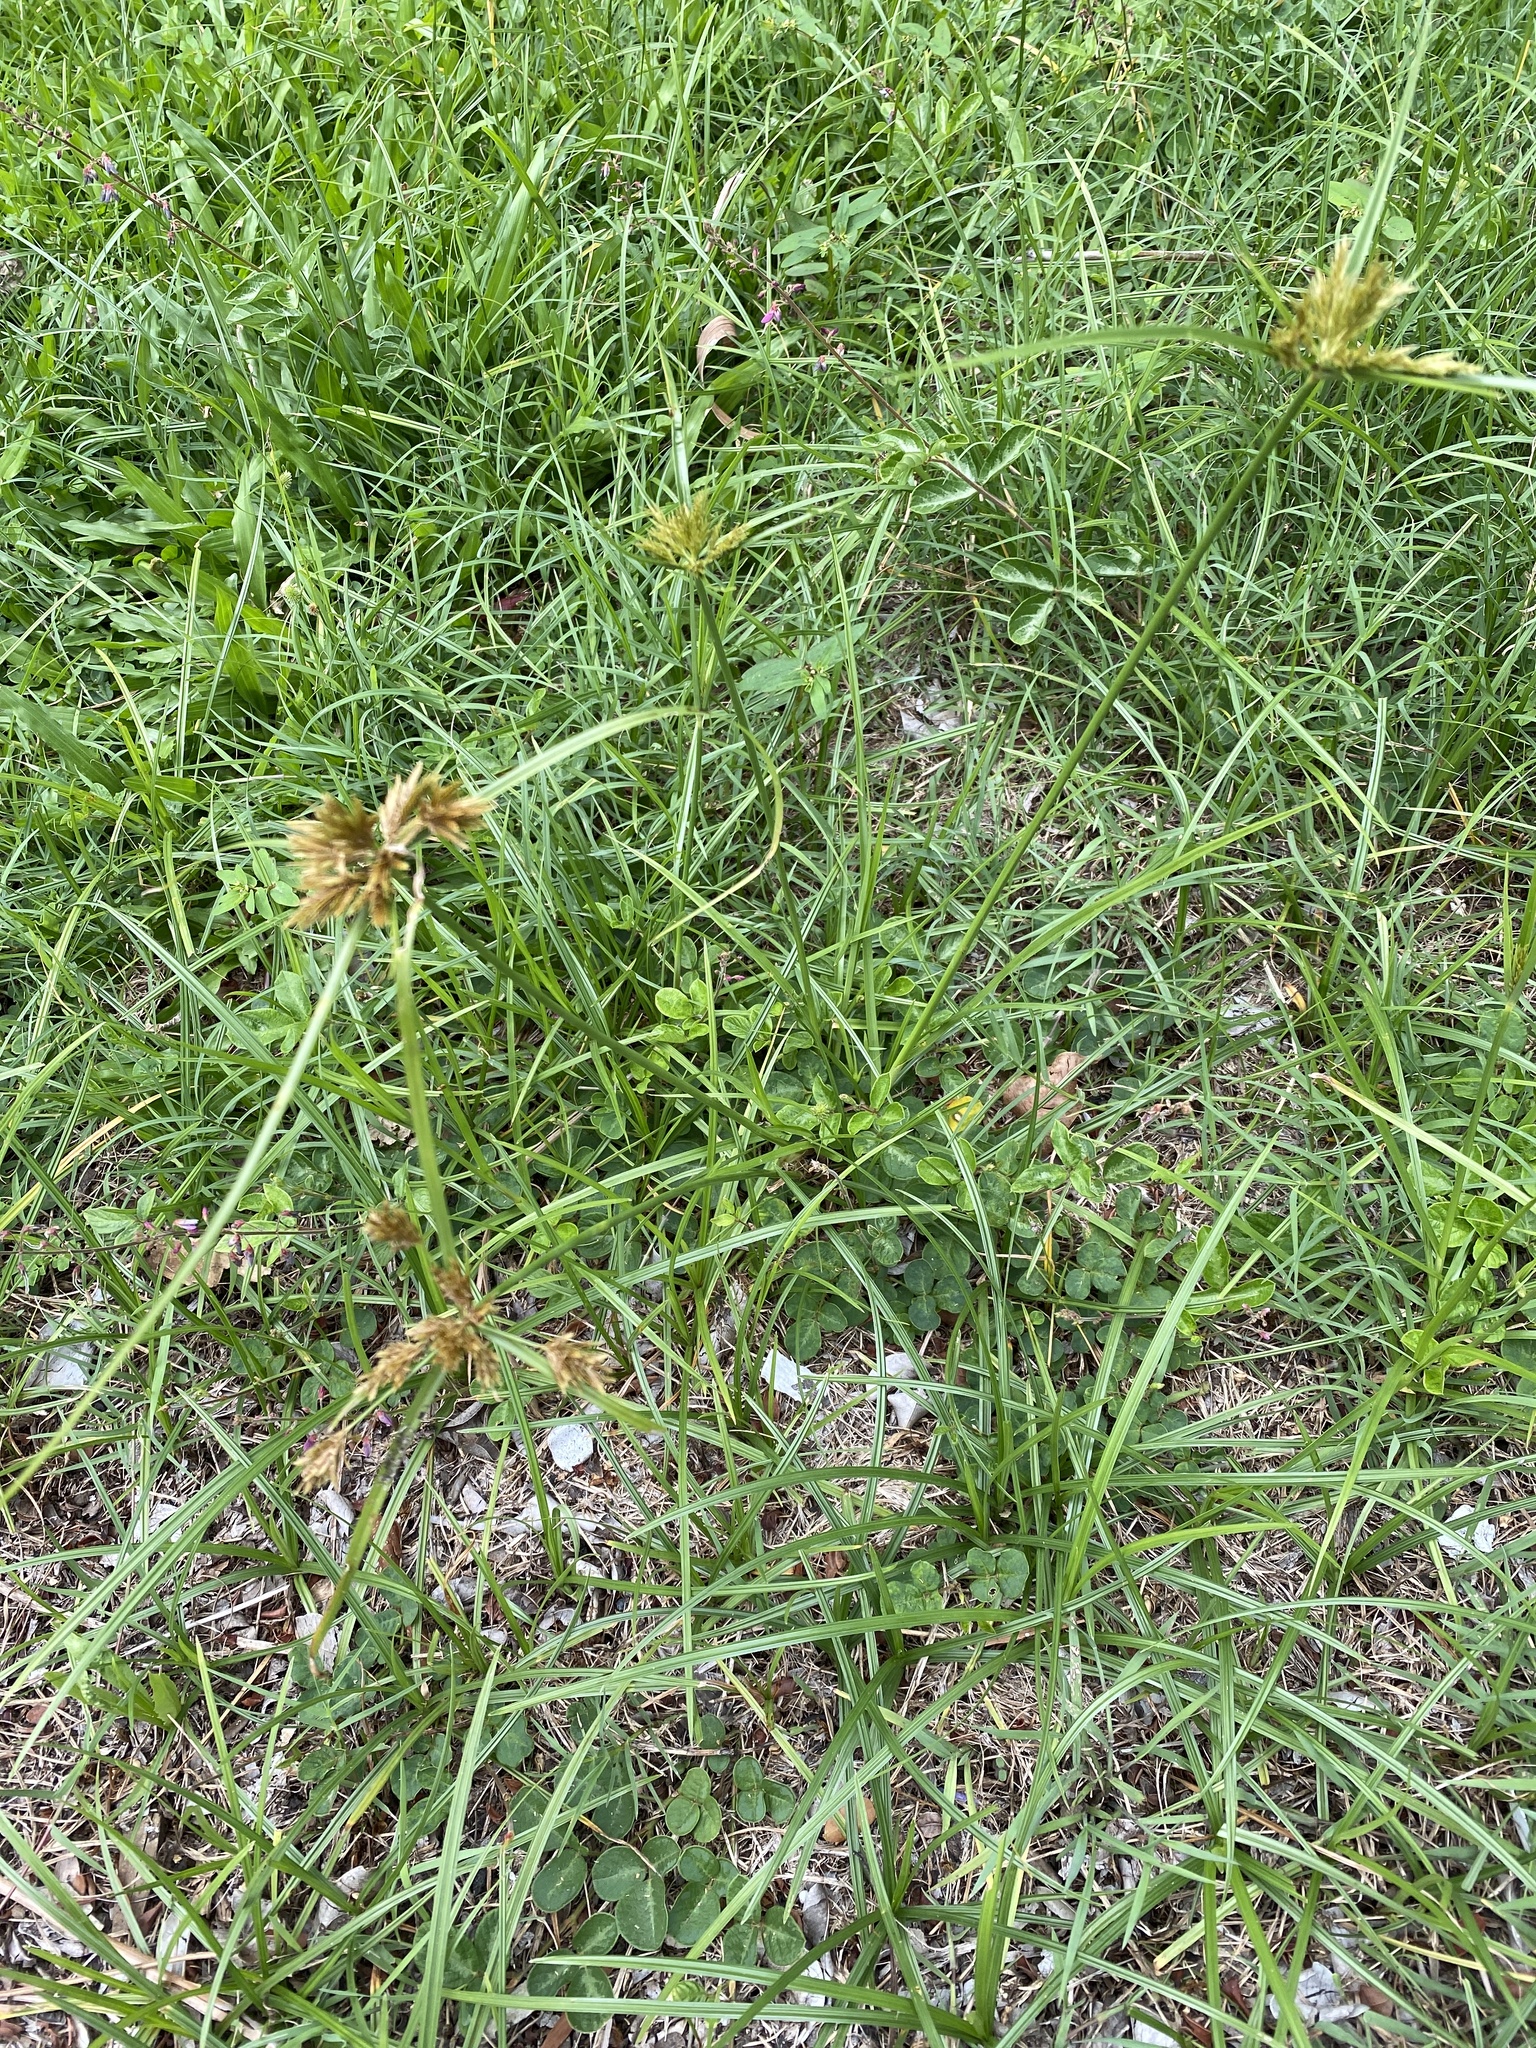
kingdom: Plantae
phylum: Tracheophyta
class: Liliopsida
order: Poales
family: Cyperaceae
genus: Cyperus
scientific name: Cyperus polystachyos
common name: Bunchy flat sedge
